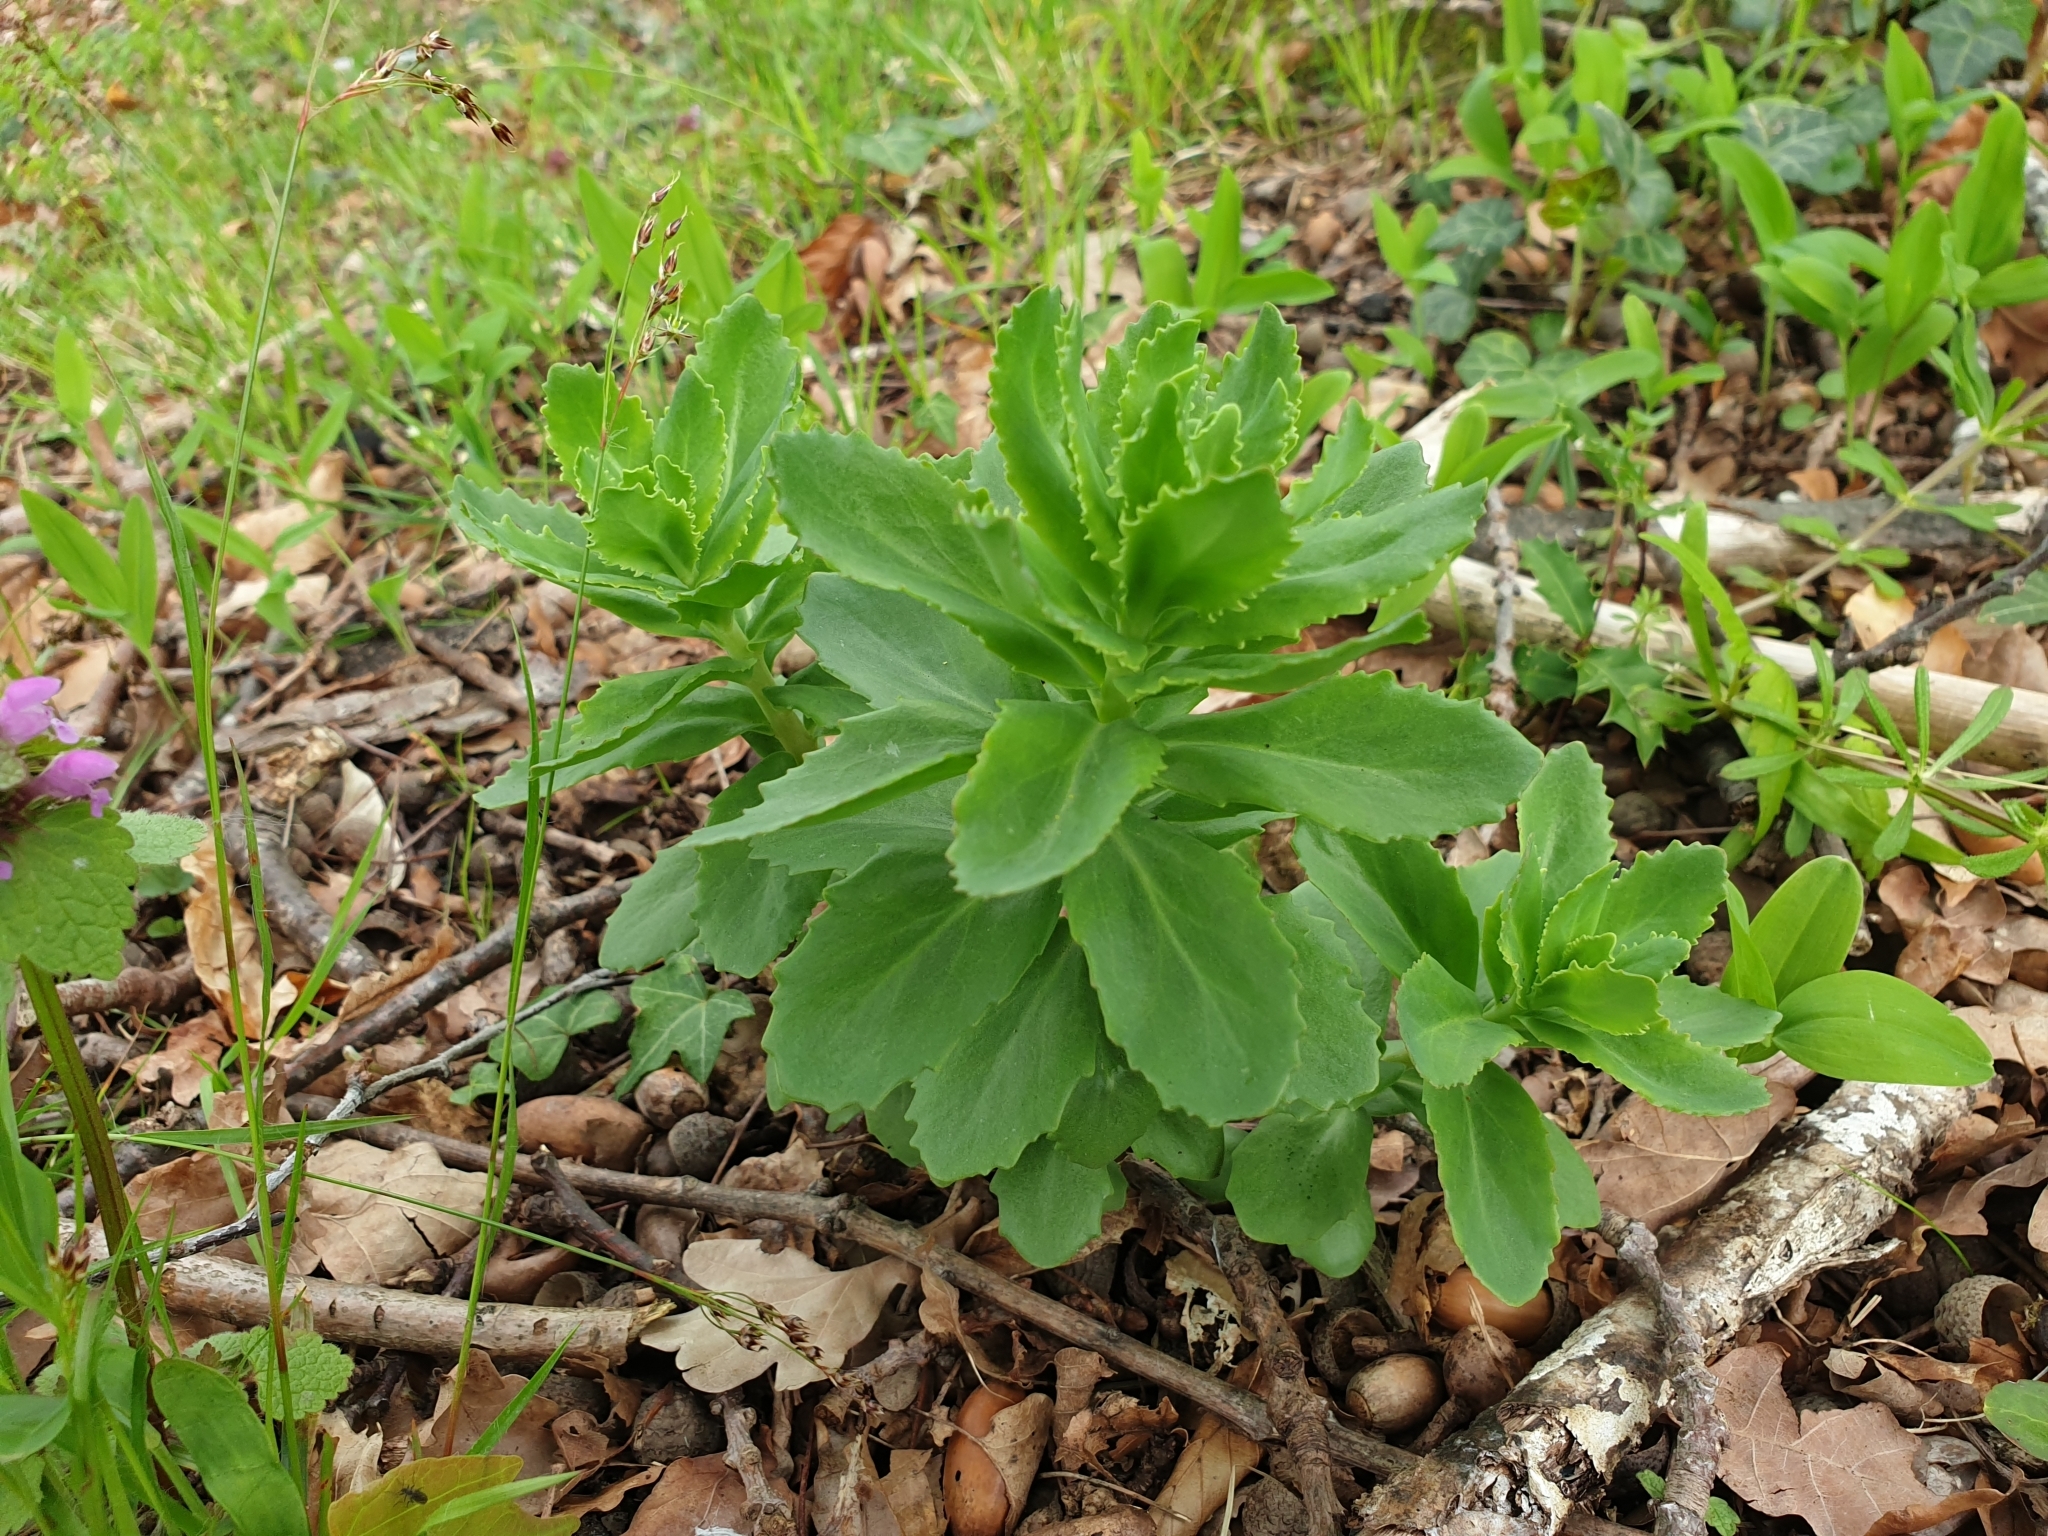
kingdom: Plantae
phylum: Tracheophyta
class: Magnoliopsida
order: Saxifragales
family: Crassulaceae
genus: Hylotelephium
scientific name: Hylotelephium telephium
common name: Live-forever
